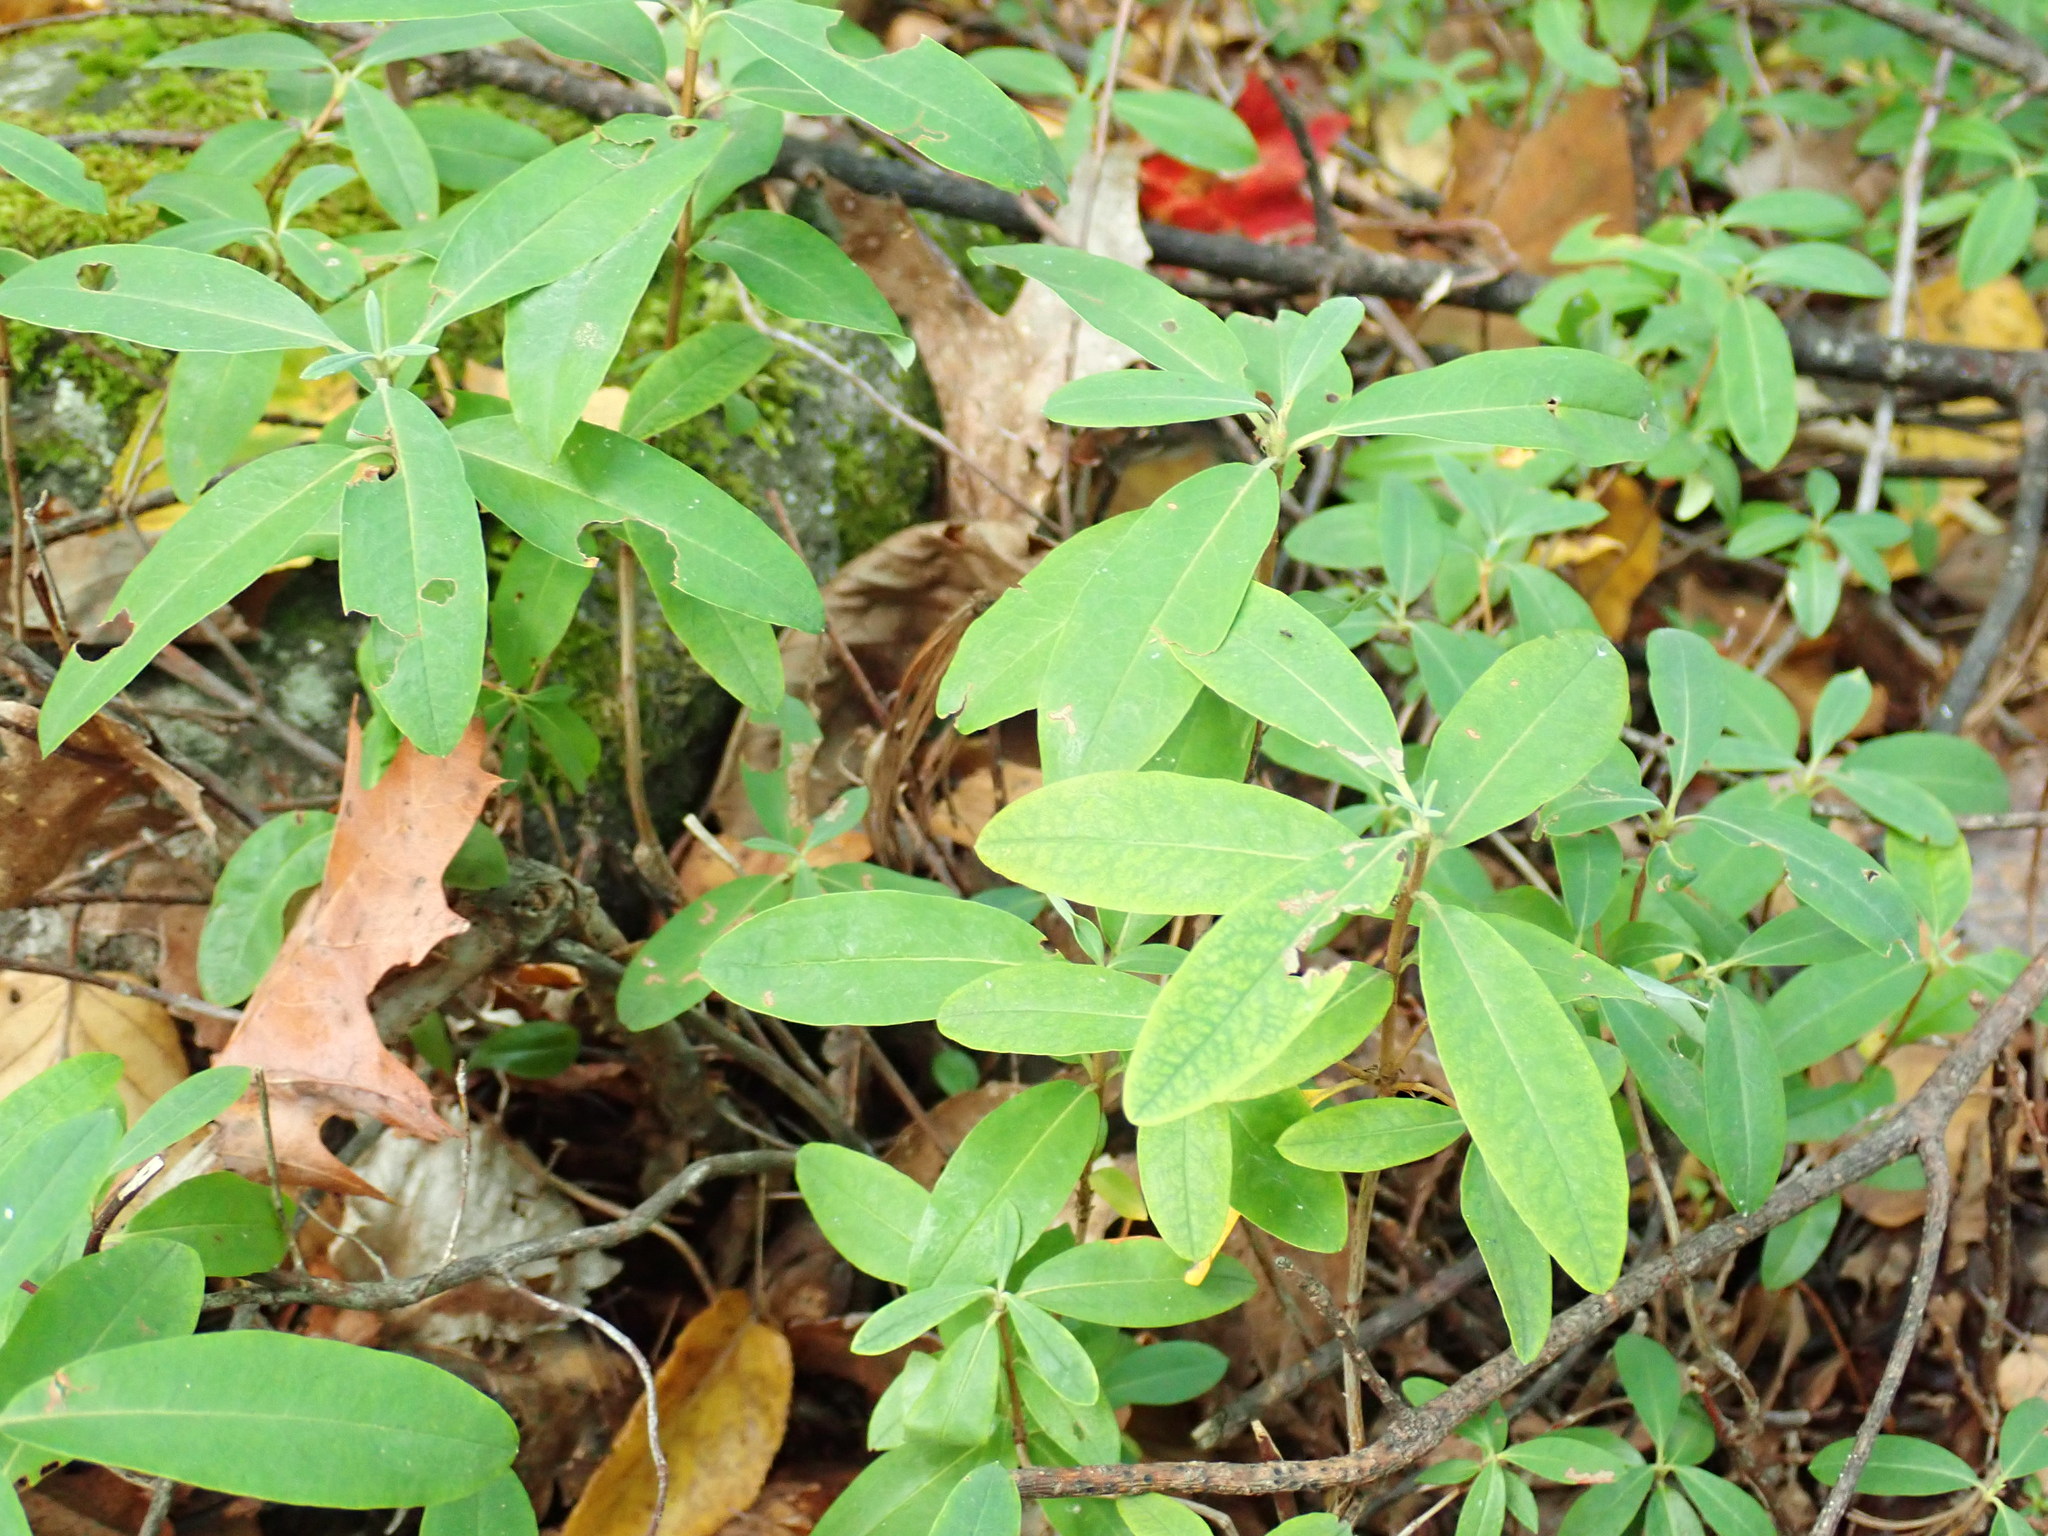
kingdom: Plantae
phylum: Tracheophyta
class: Magnoliopsida
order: Ericales
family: Ericaceae
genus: Kalmia
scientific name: Kalmia angustifolia
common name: Sheep-laurel
